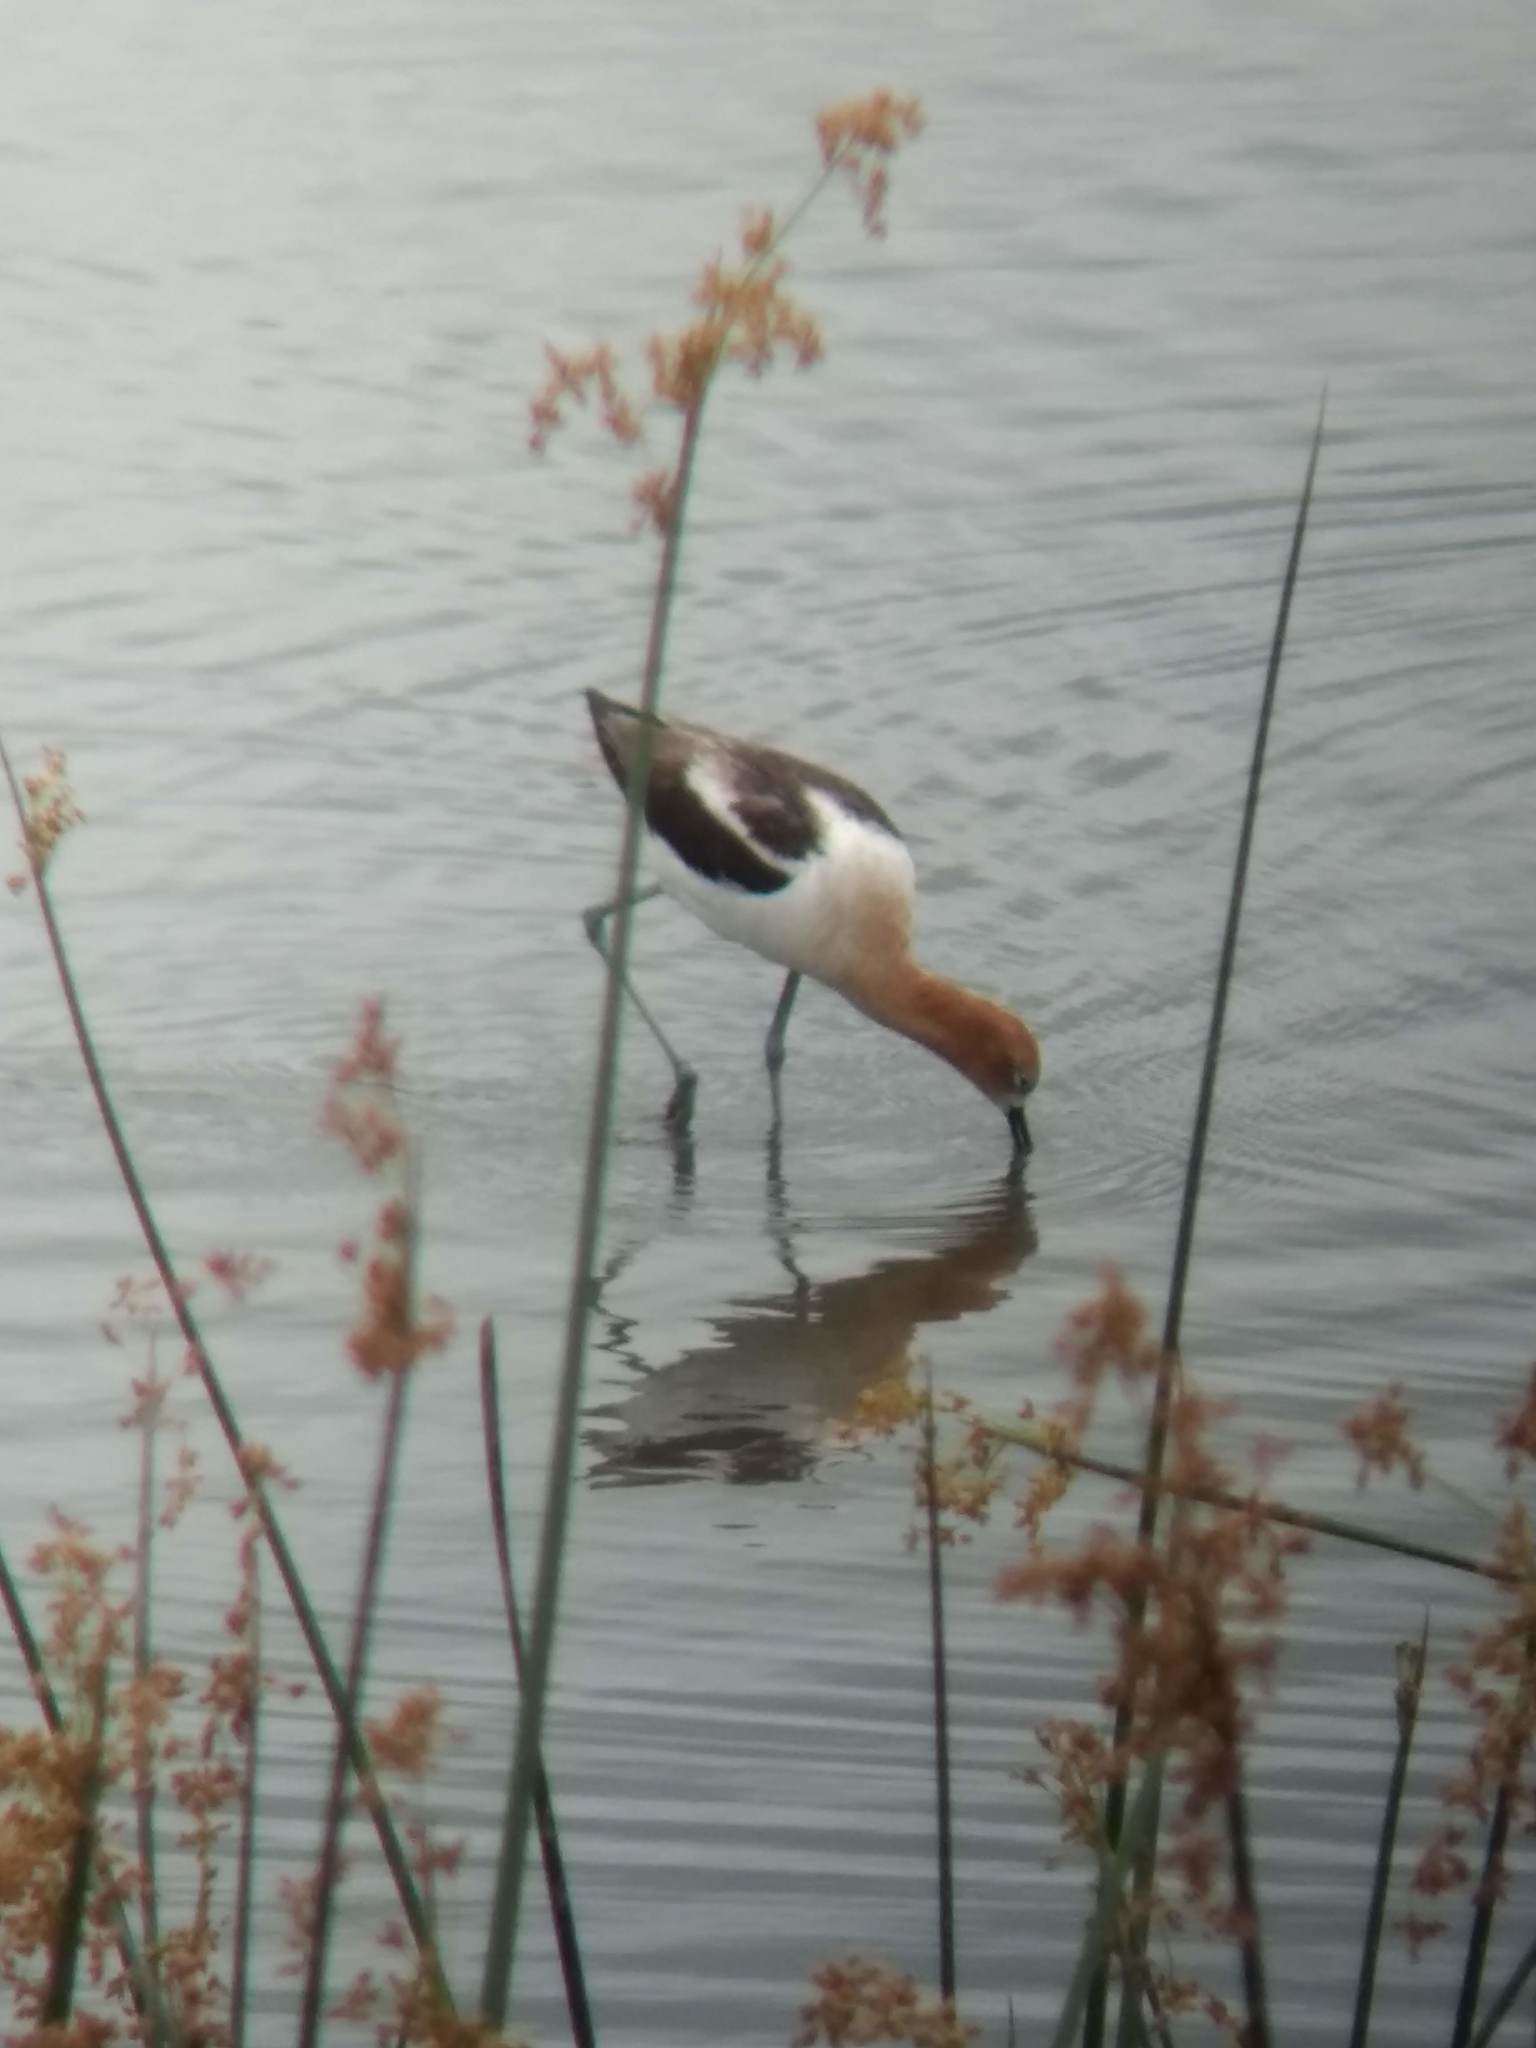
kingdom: Animalia
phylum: Chordata
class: Aves
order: Charadriiformes
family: Recurvirostridae
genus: Recurvirostra
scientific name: Recurvirostra americana
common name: American avocet
